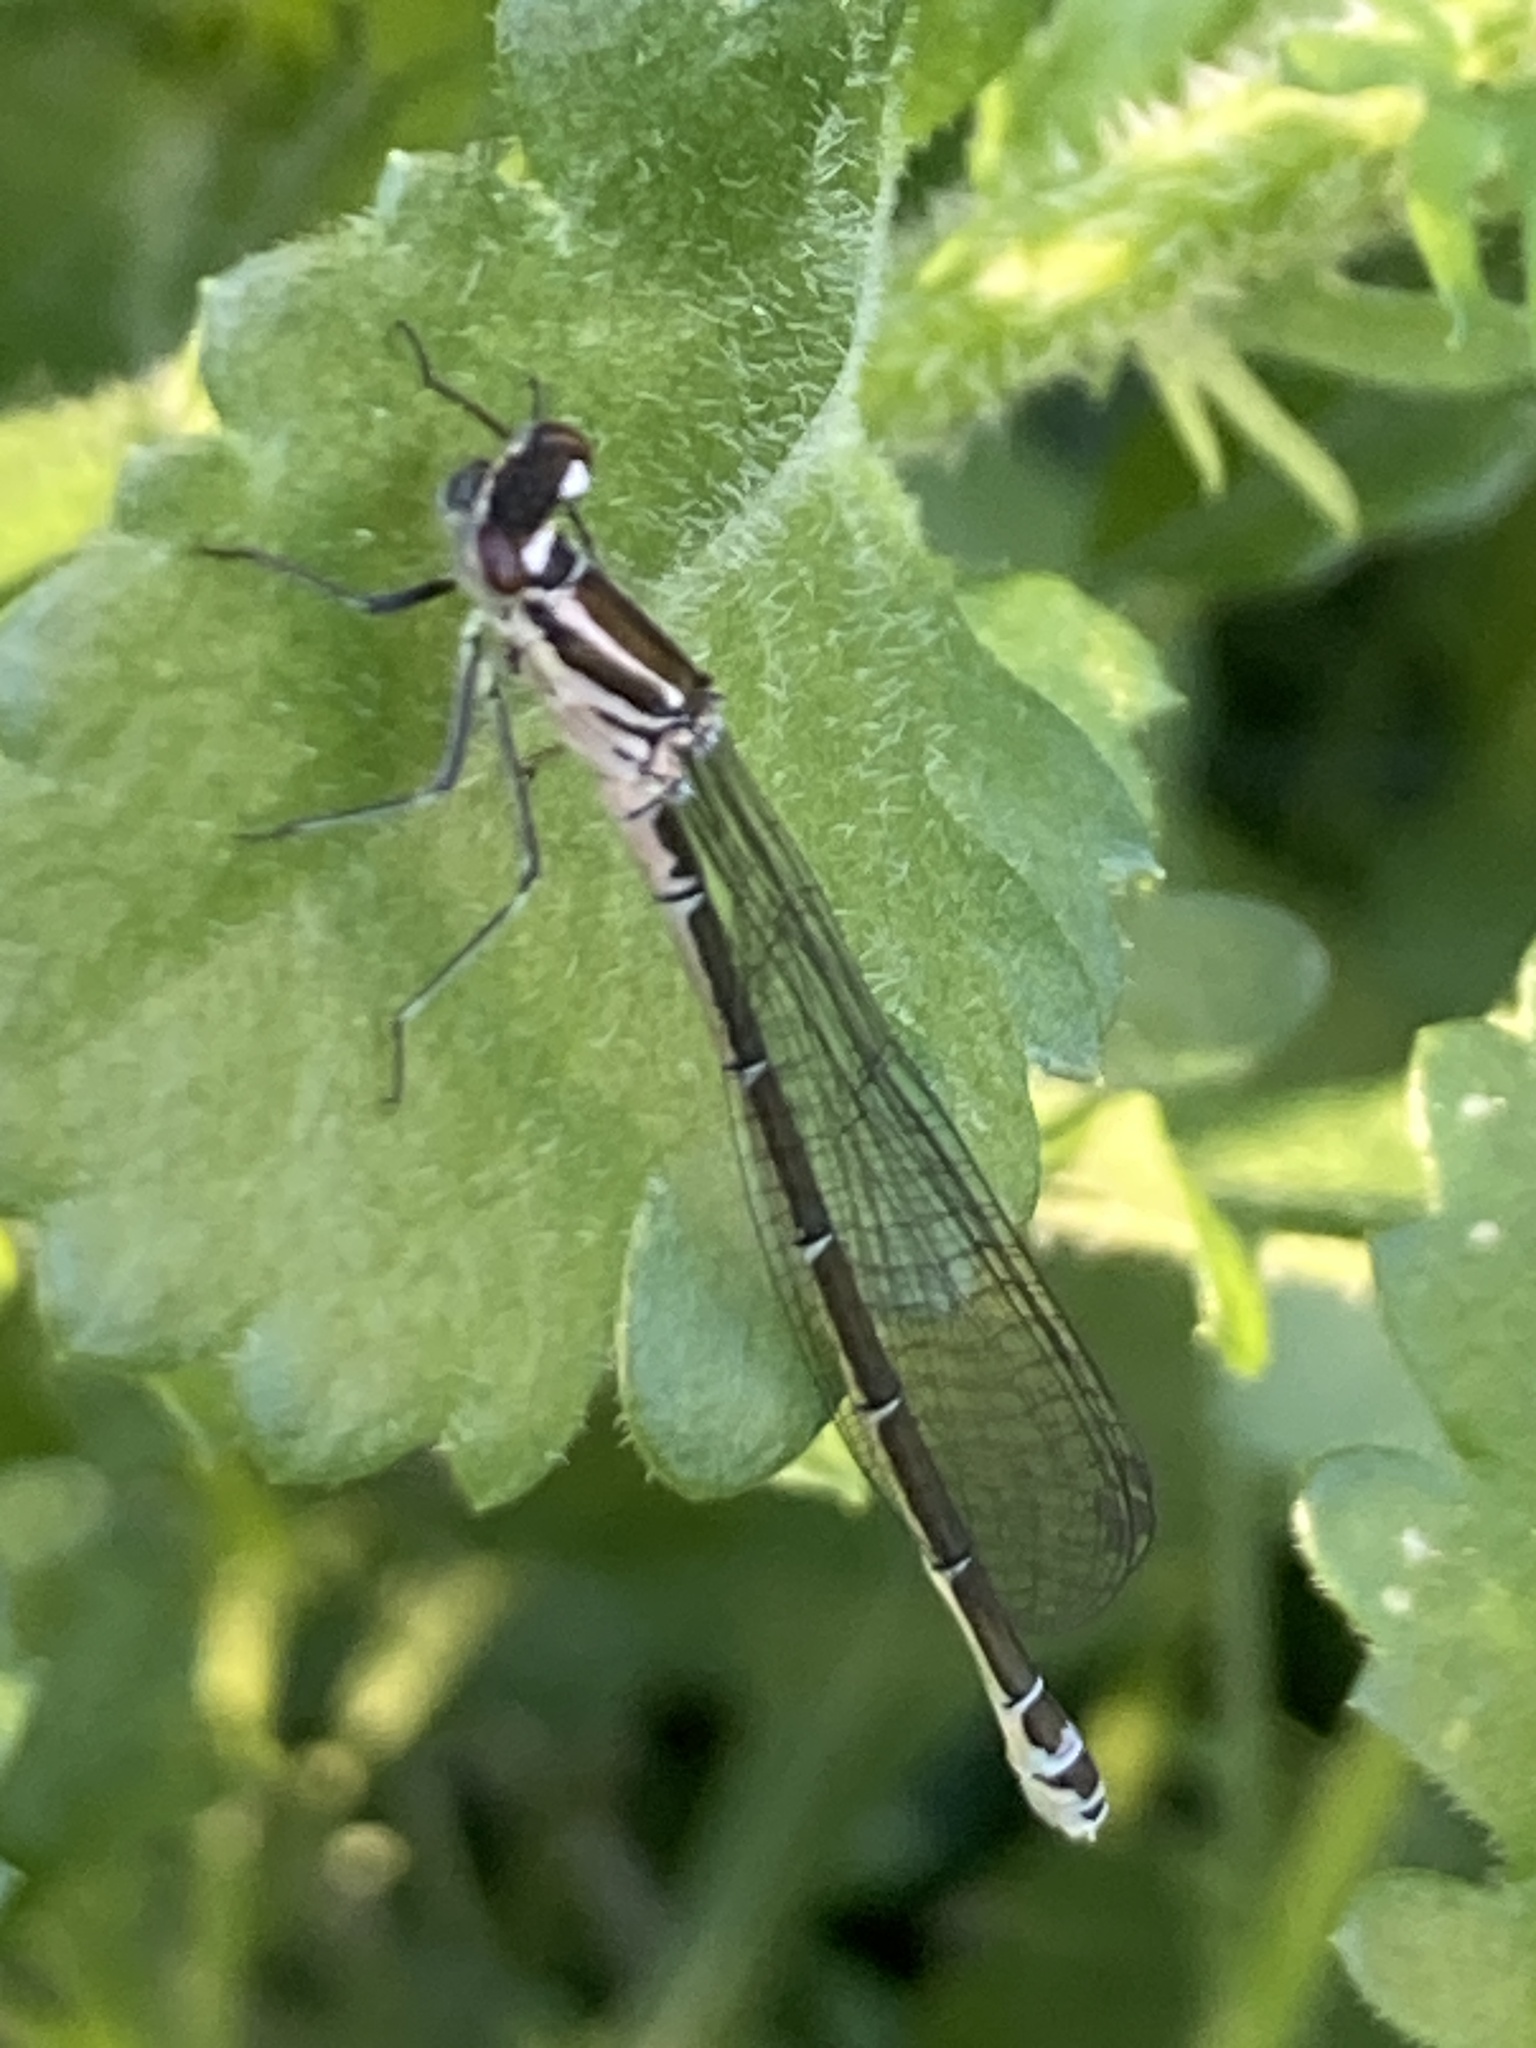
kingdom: Animalia
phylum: Arthropoda
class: Insecta
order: Odonata
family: Coenagrionidae
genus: Coenagrion
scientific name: Coenagrion puella
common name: Azure damselfly
